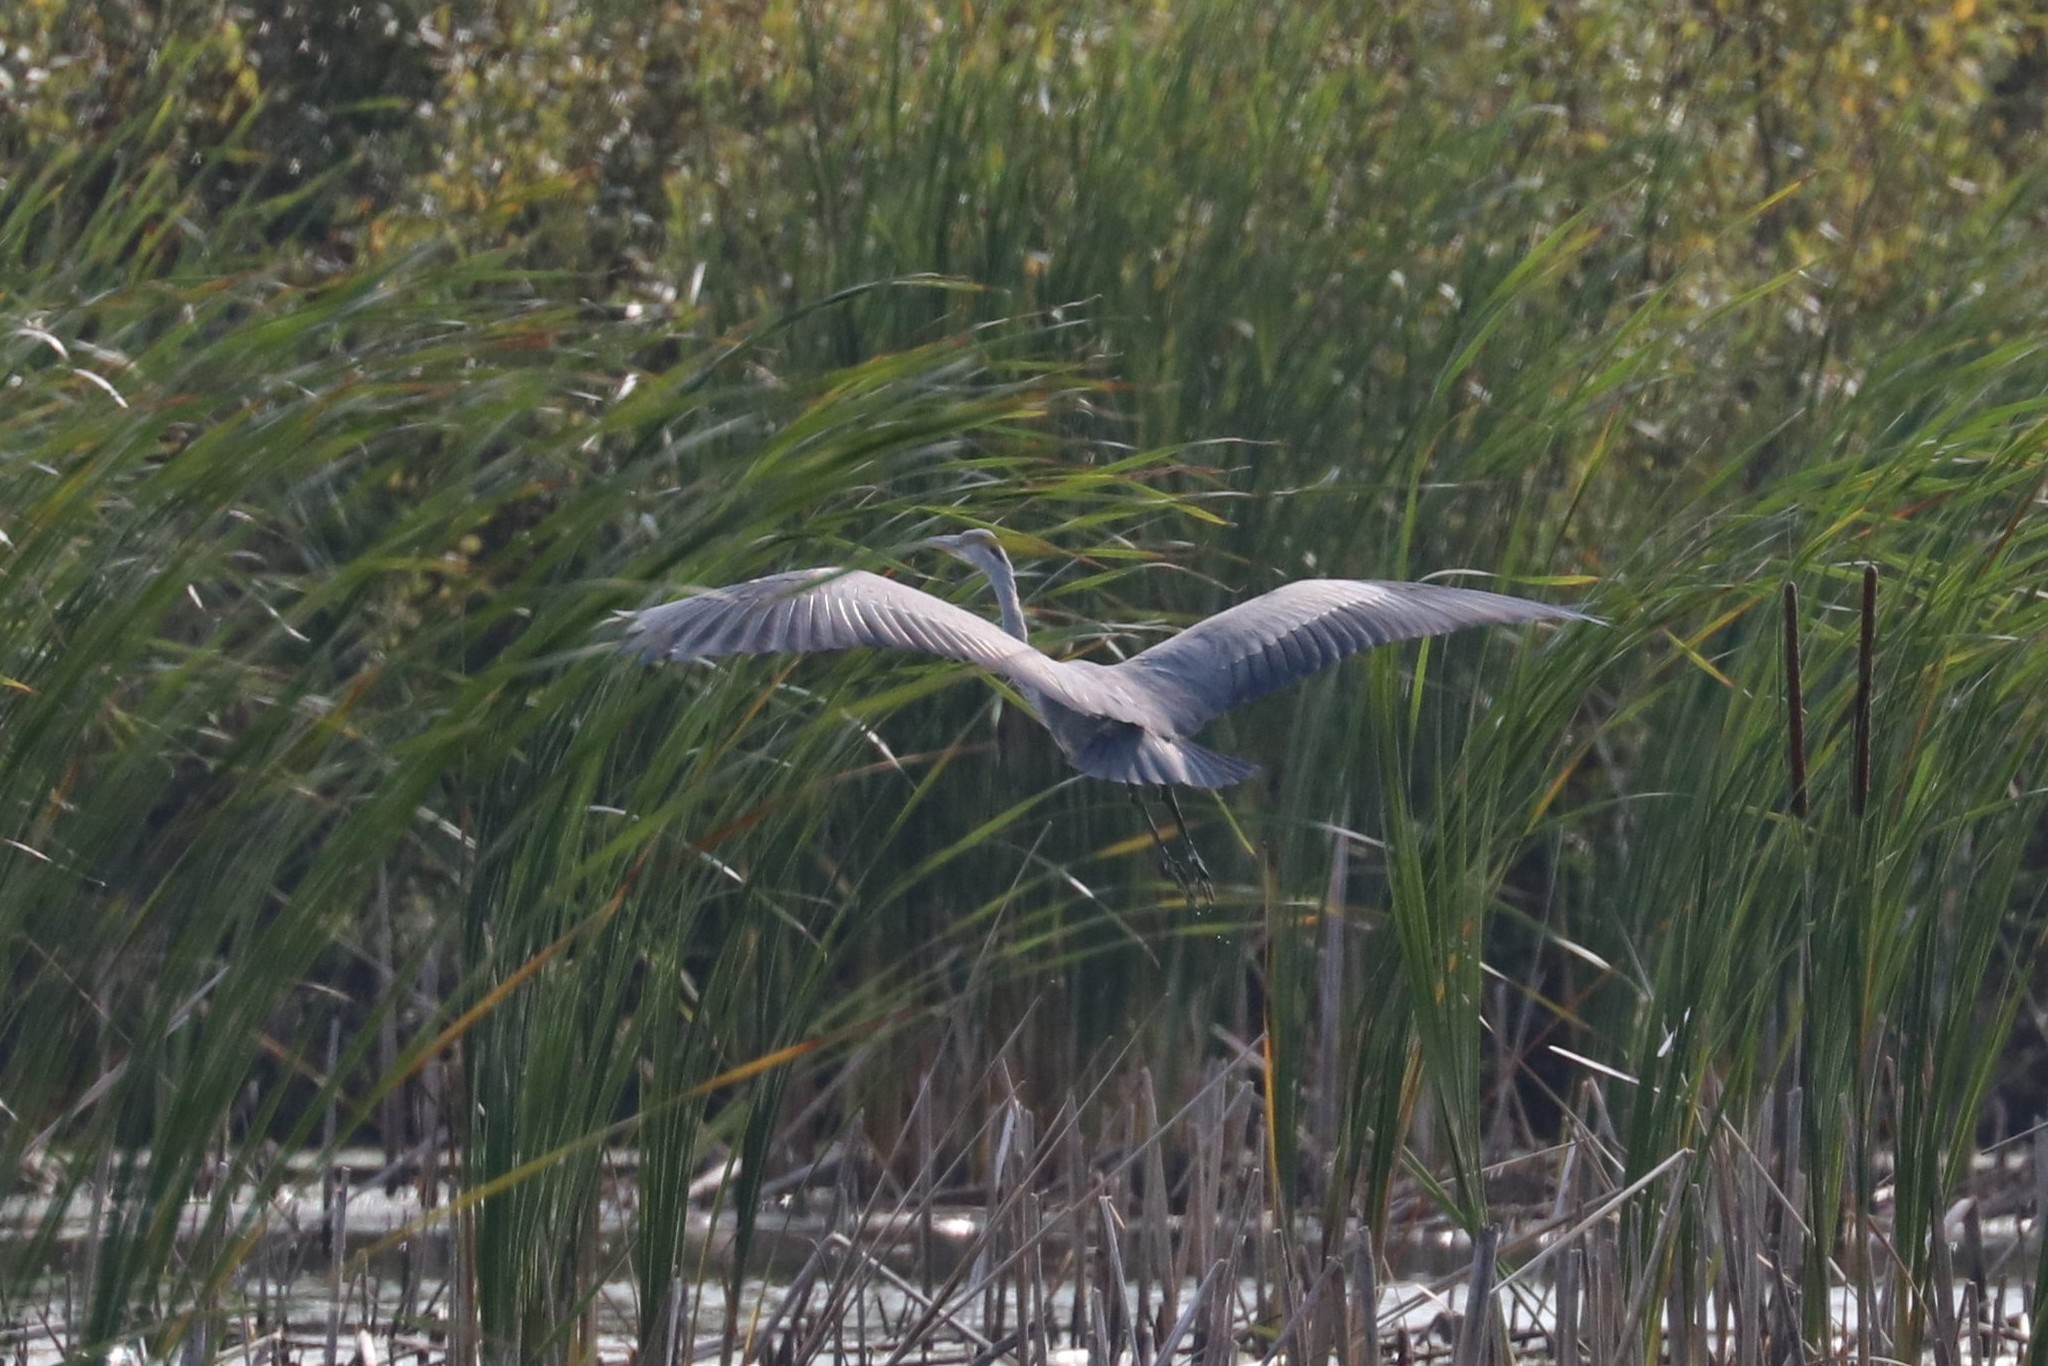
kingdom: Animalia
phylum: Chordata
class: Aves
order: Pelecaniformes
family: Ardeidae
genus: Ardea
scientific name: Ardea cinerea
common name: Grey heron
